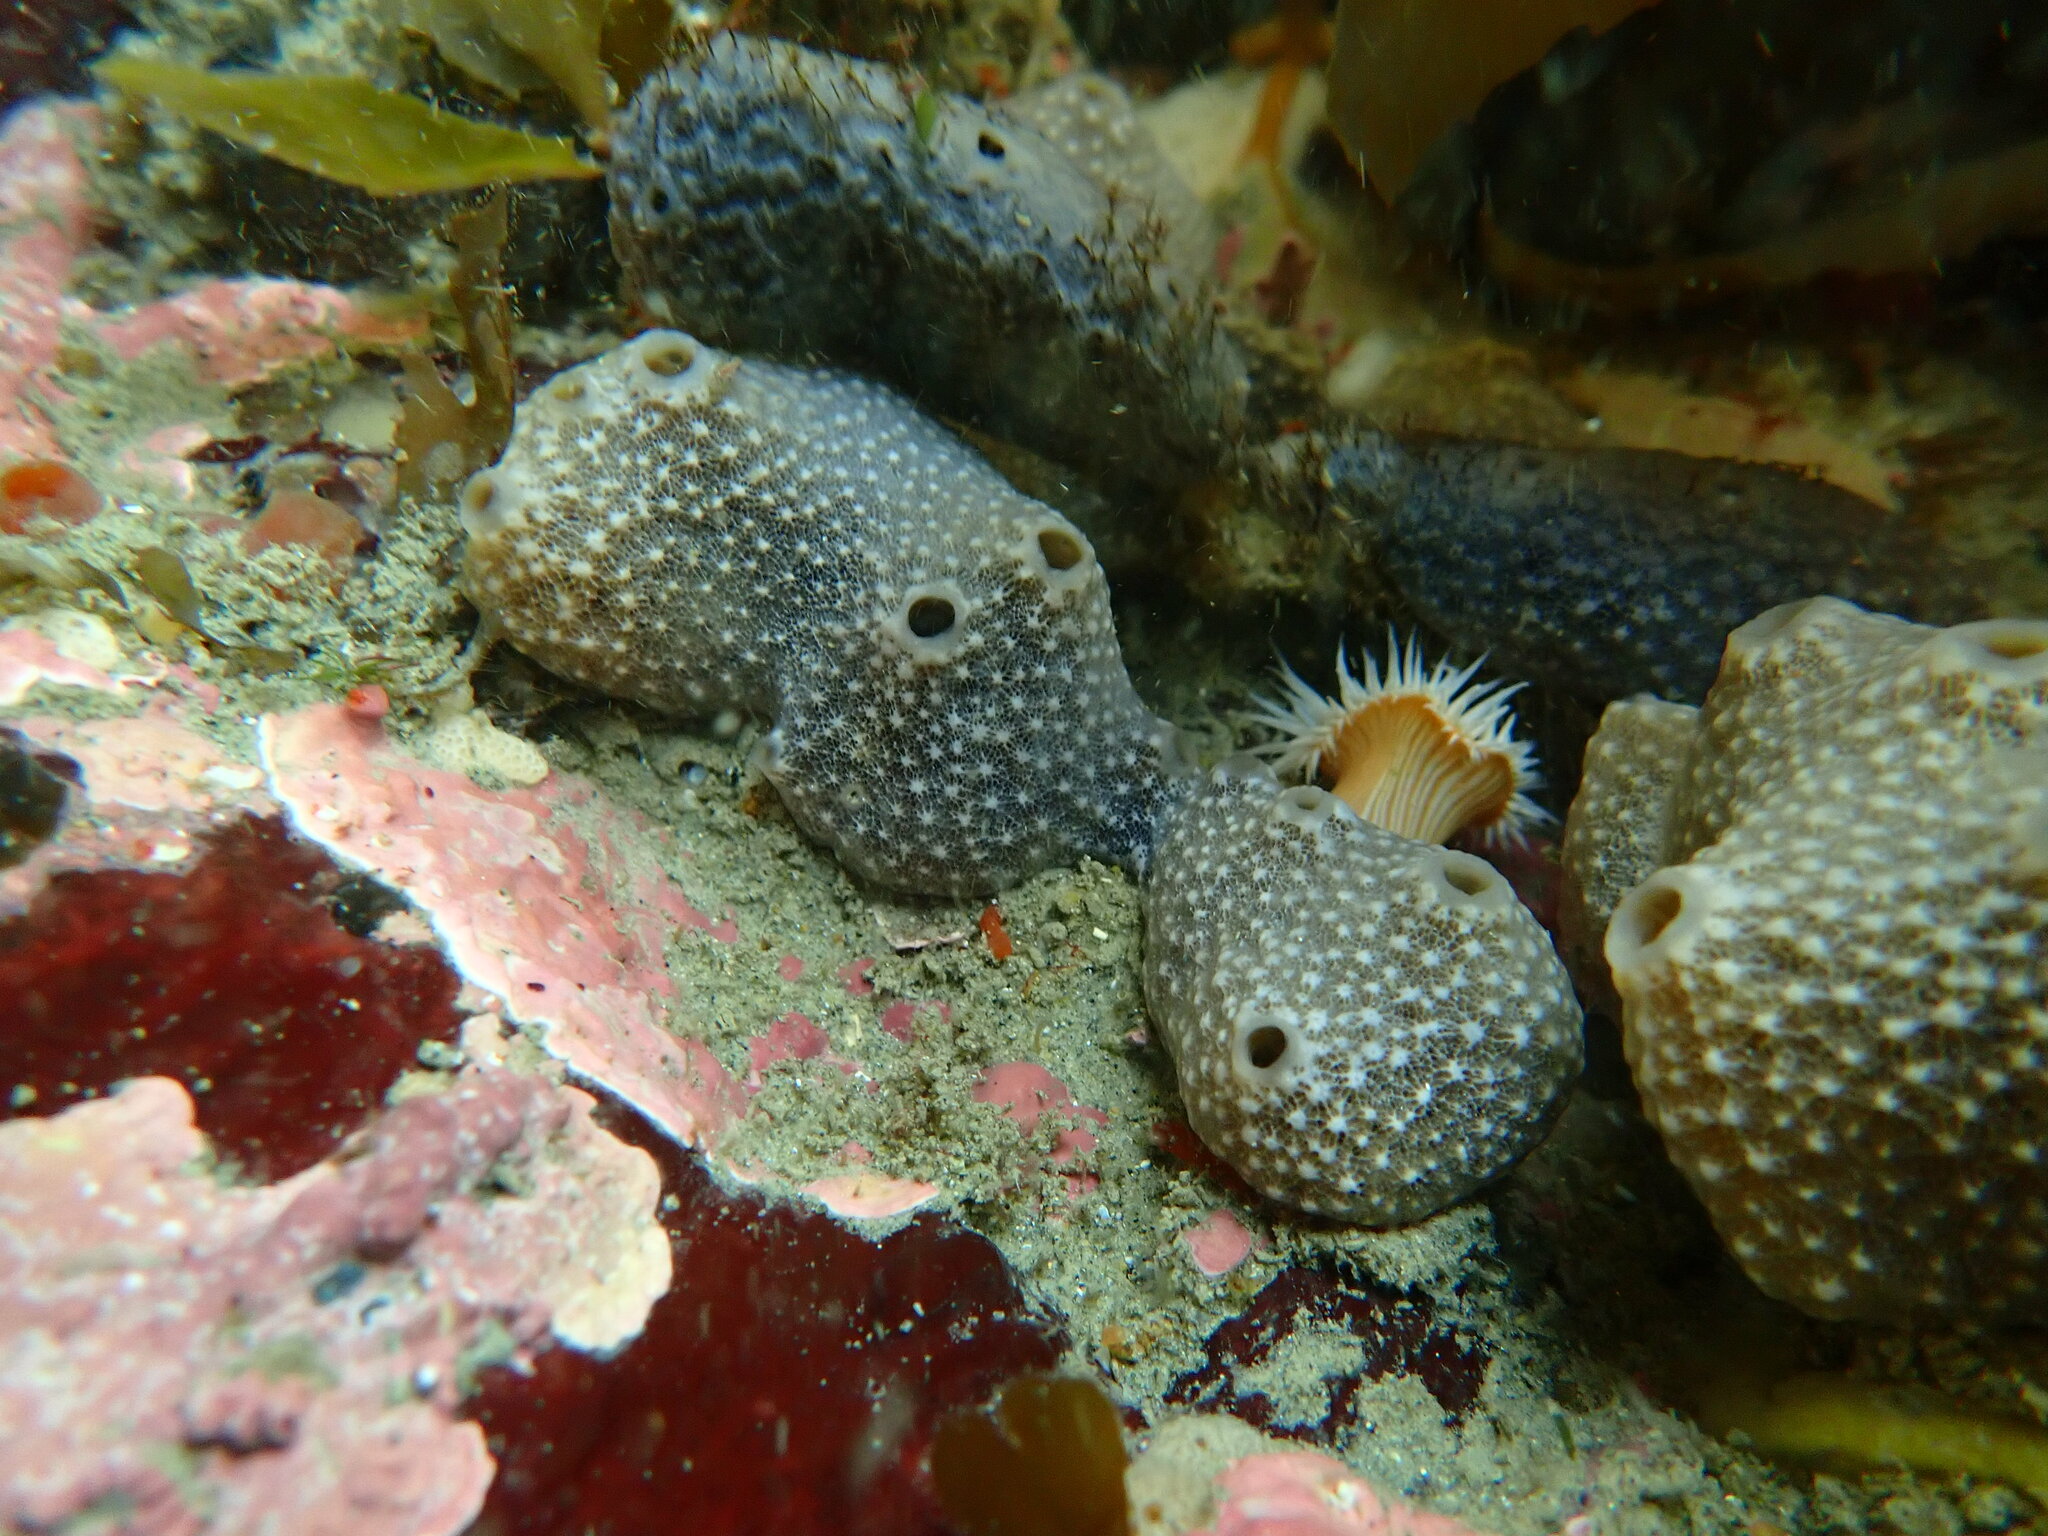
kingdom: Animalia
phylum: Porifera
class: Demospongiae
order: Poecilosclerida
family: Chondropsidae
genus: Strongylacidon
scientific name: Strongylacidon conulosum
